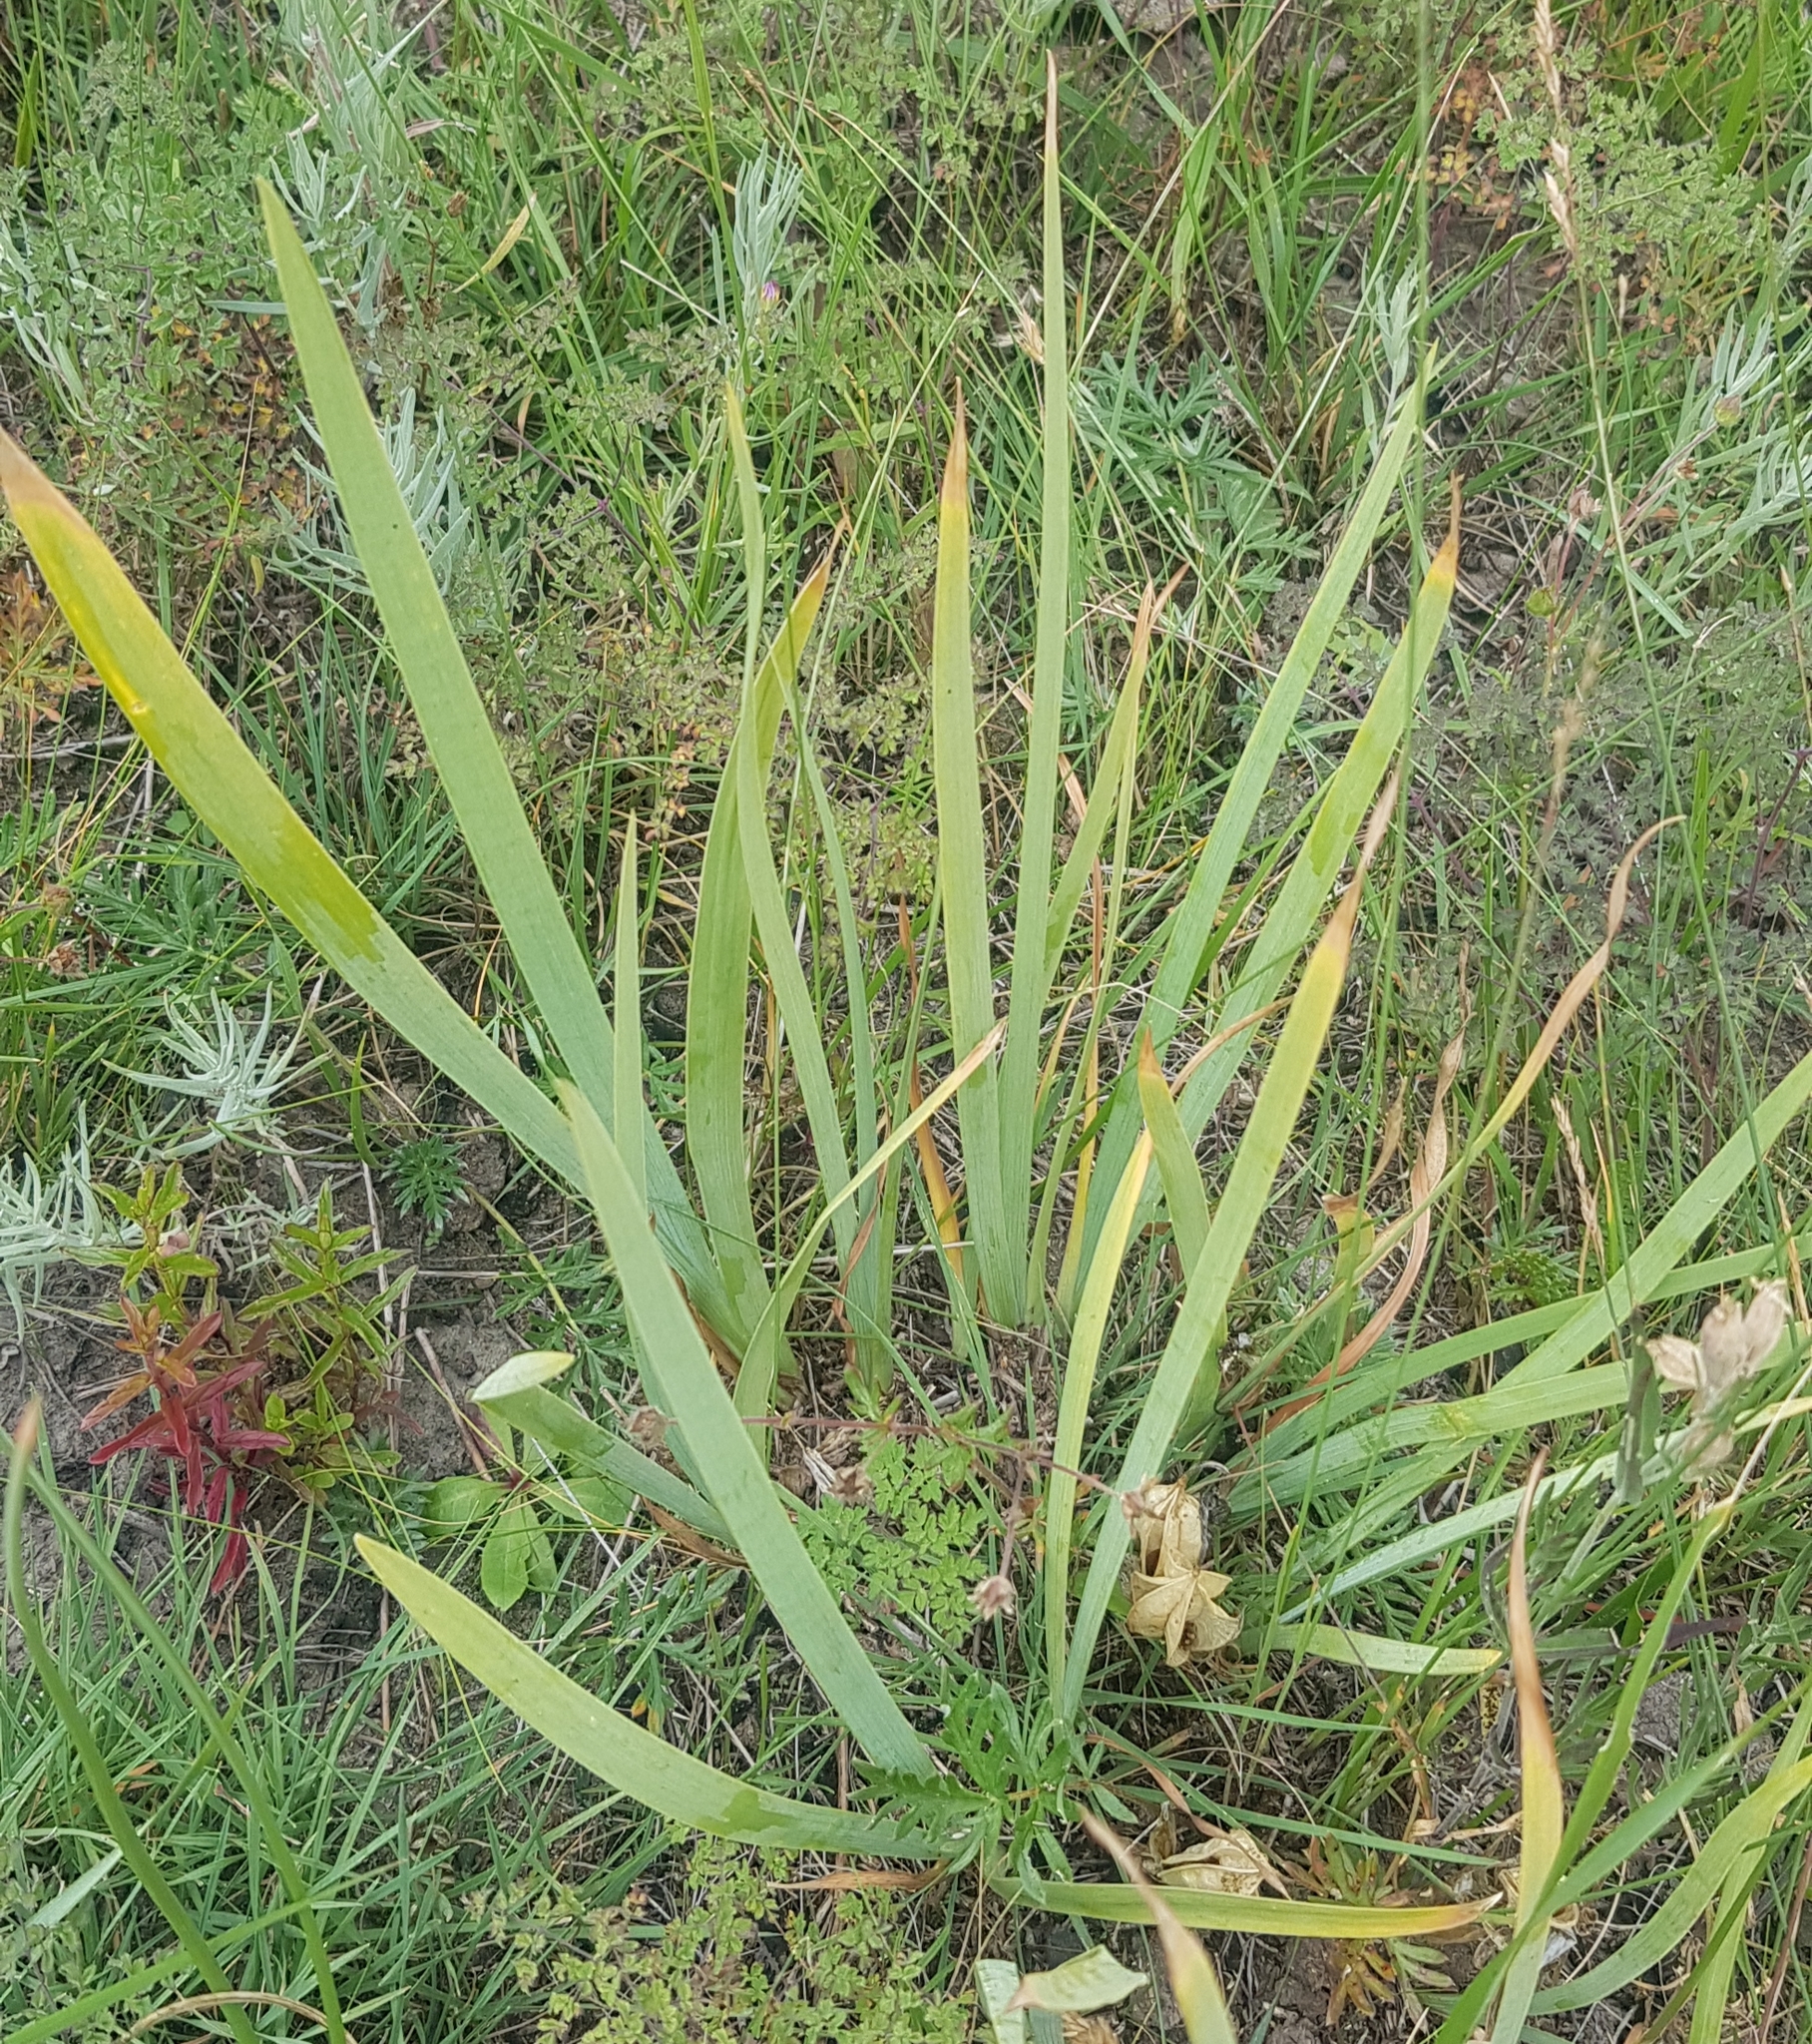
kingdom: Plantae
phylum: Tracheophyta
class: Liliopsida
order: Asparagales
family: Iridaceae
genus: Iris
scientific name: Iris humilis
